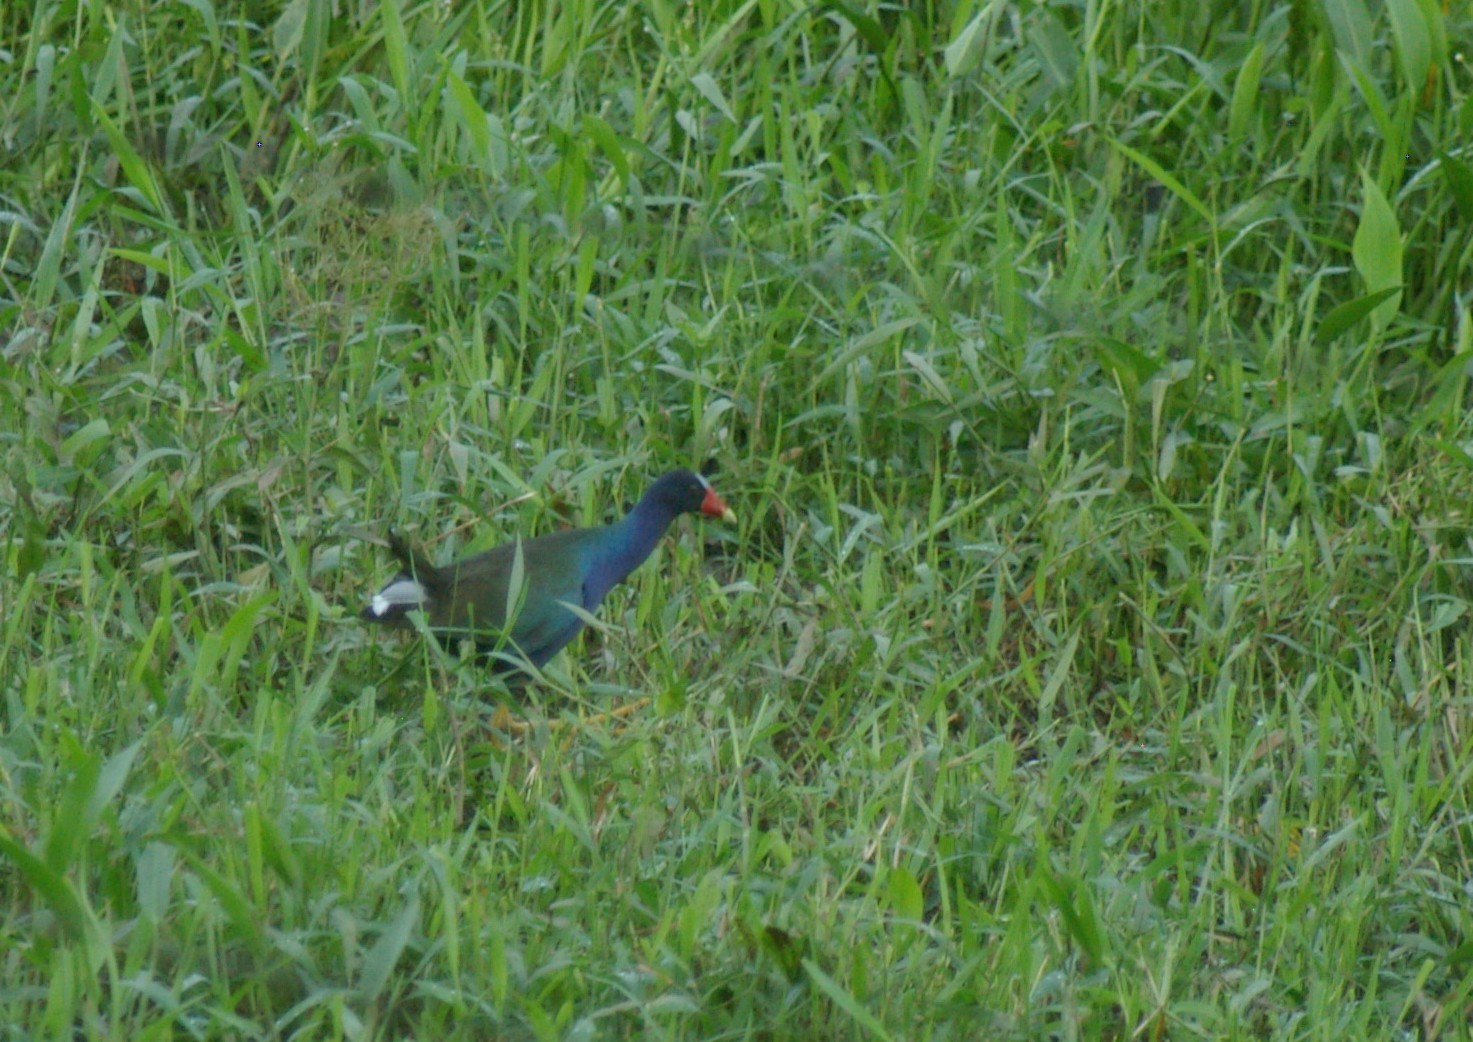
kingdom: Animalia
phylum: Chordata
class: Aves
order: Gruiformes
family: Rallidae
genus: Porphyrio
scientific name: Porphyrio martinica
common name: Purple gallinule
